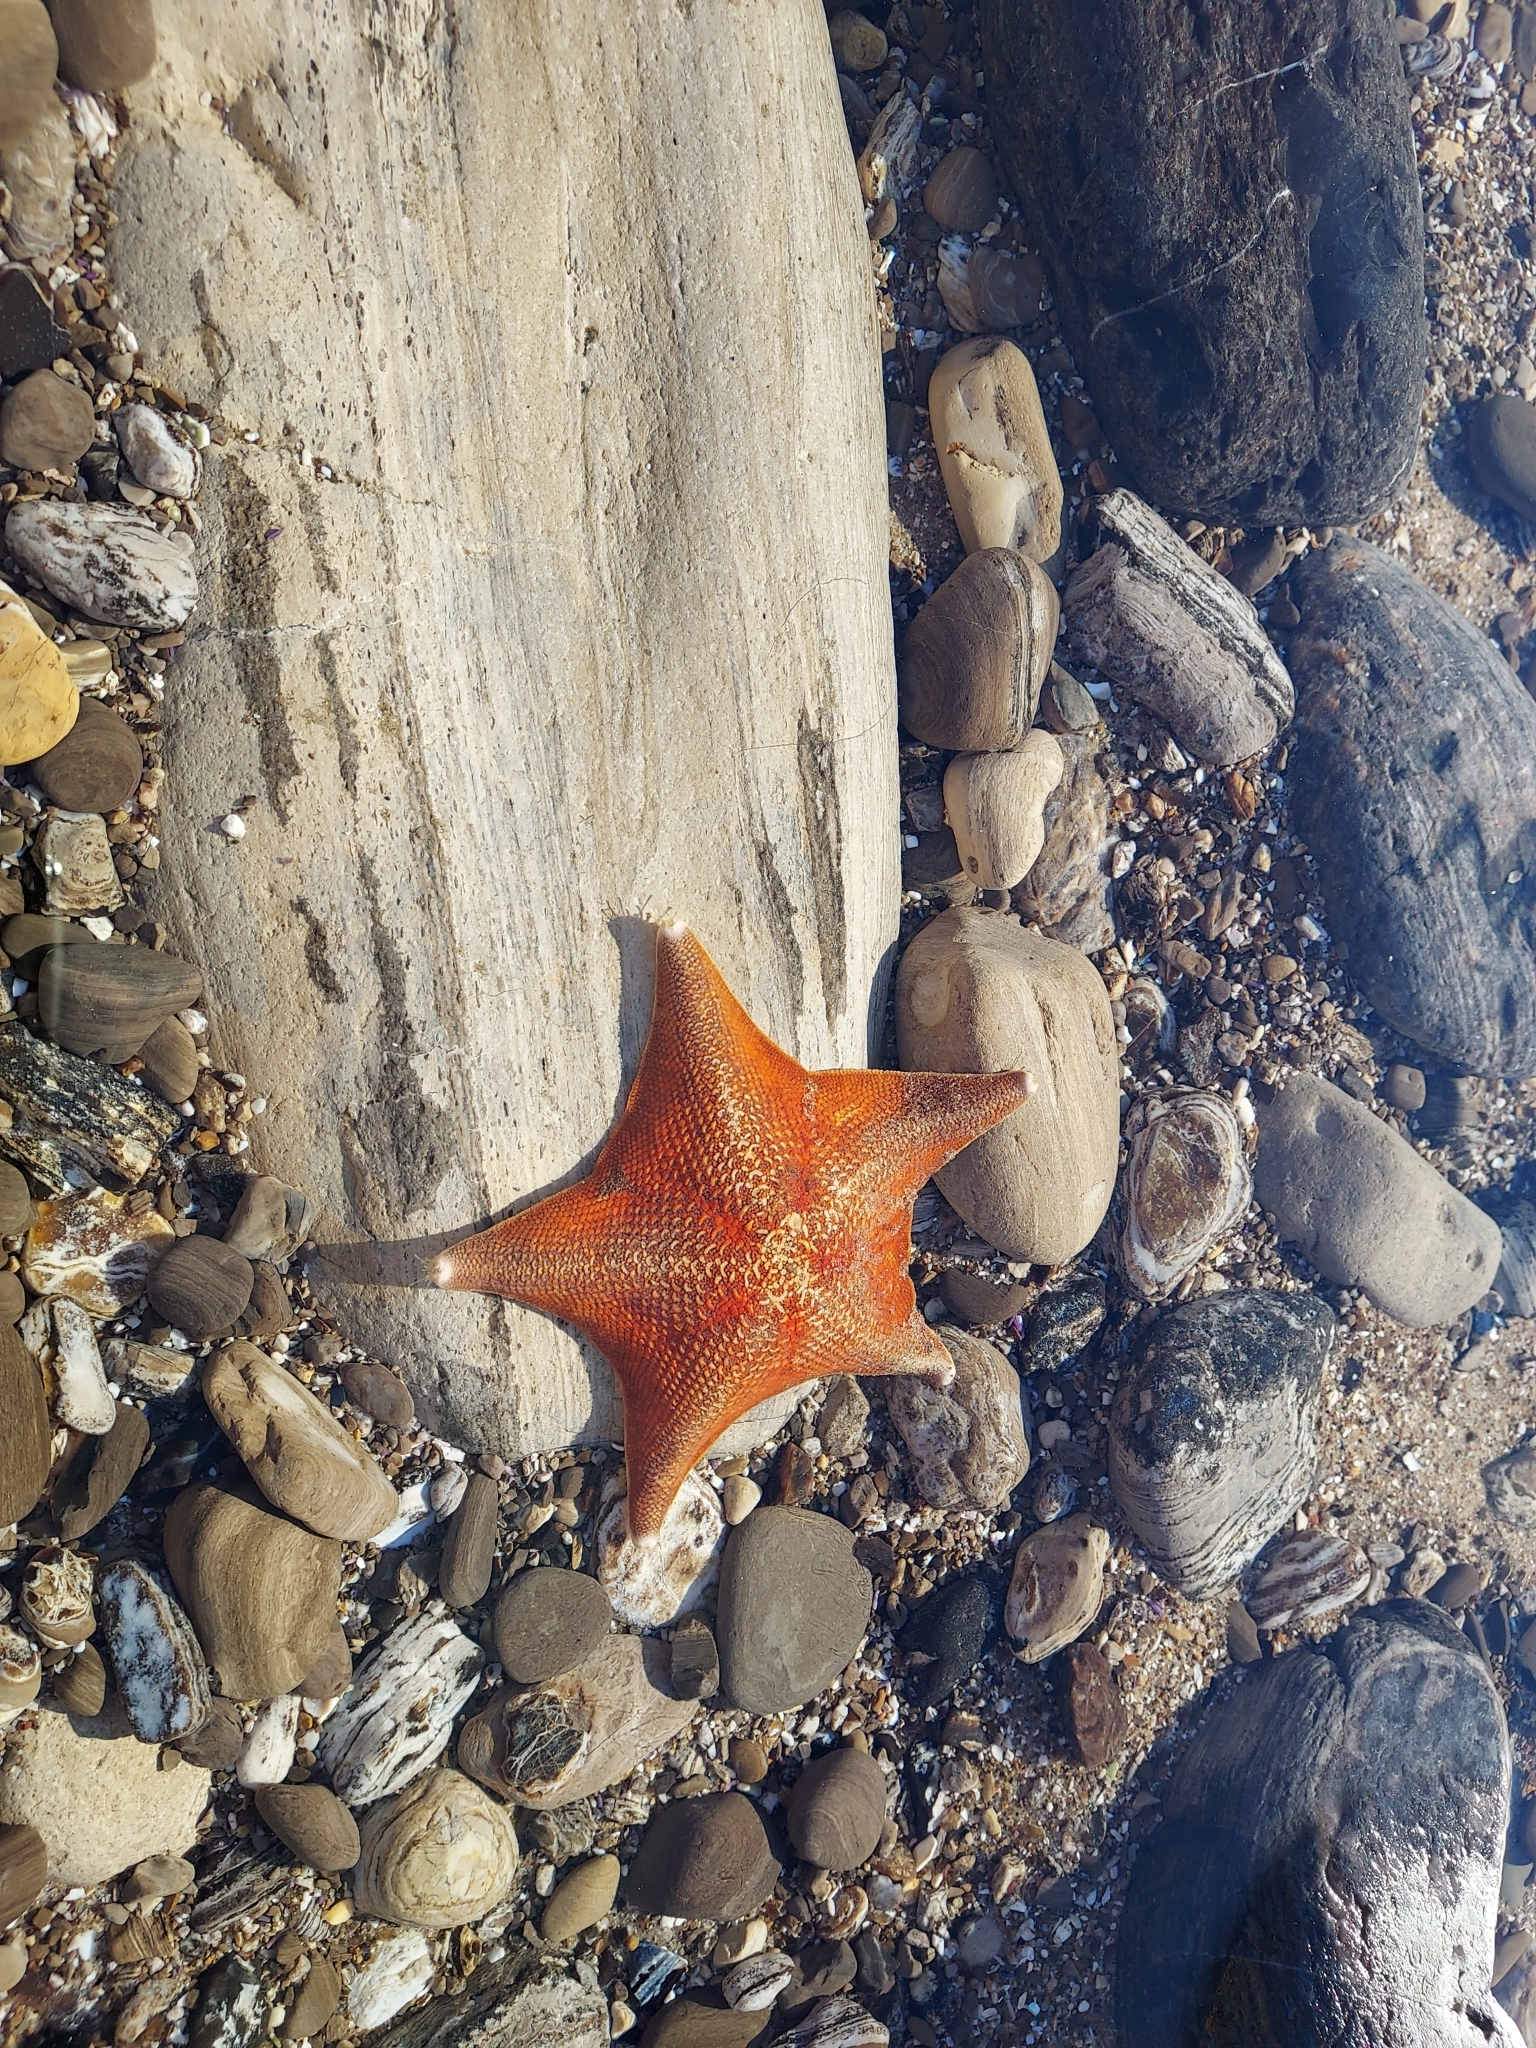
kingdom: Animalia
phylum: Echinodermata
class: Asteroidea
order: Valvatida
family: Asterinidae
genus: Patiria
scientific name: Patiria miniata
